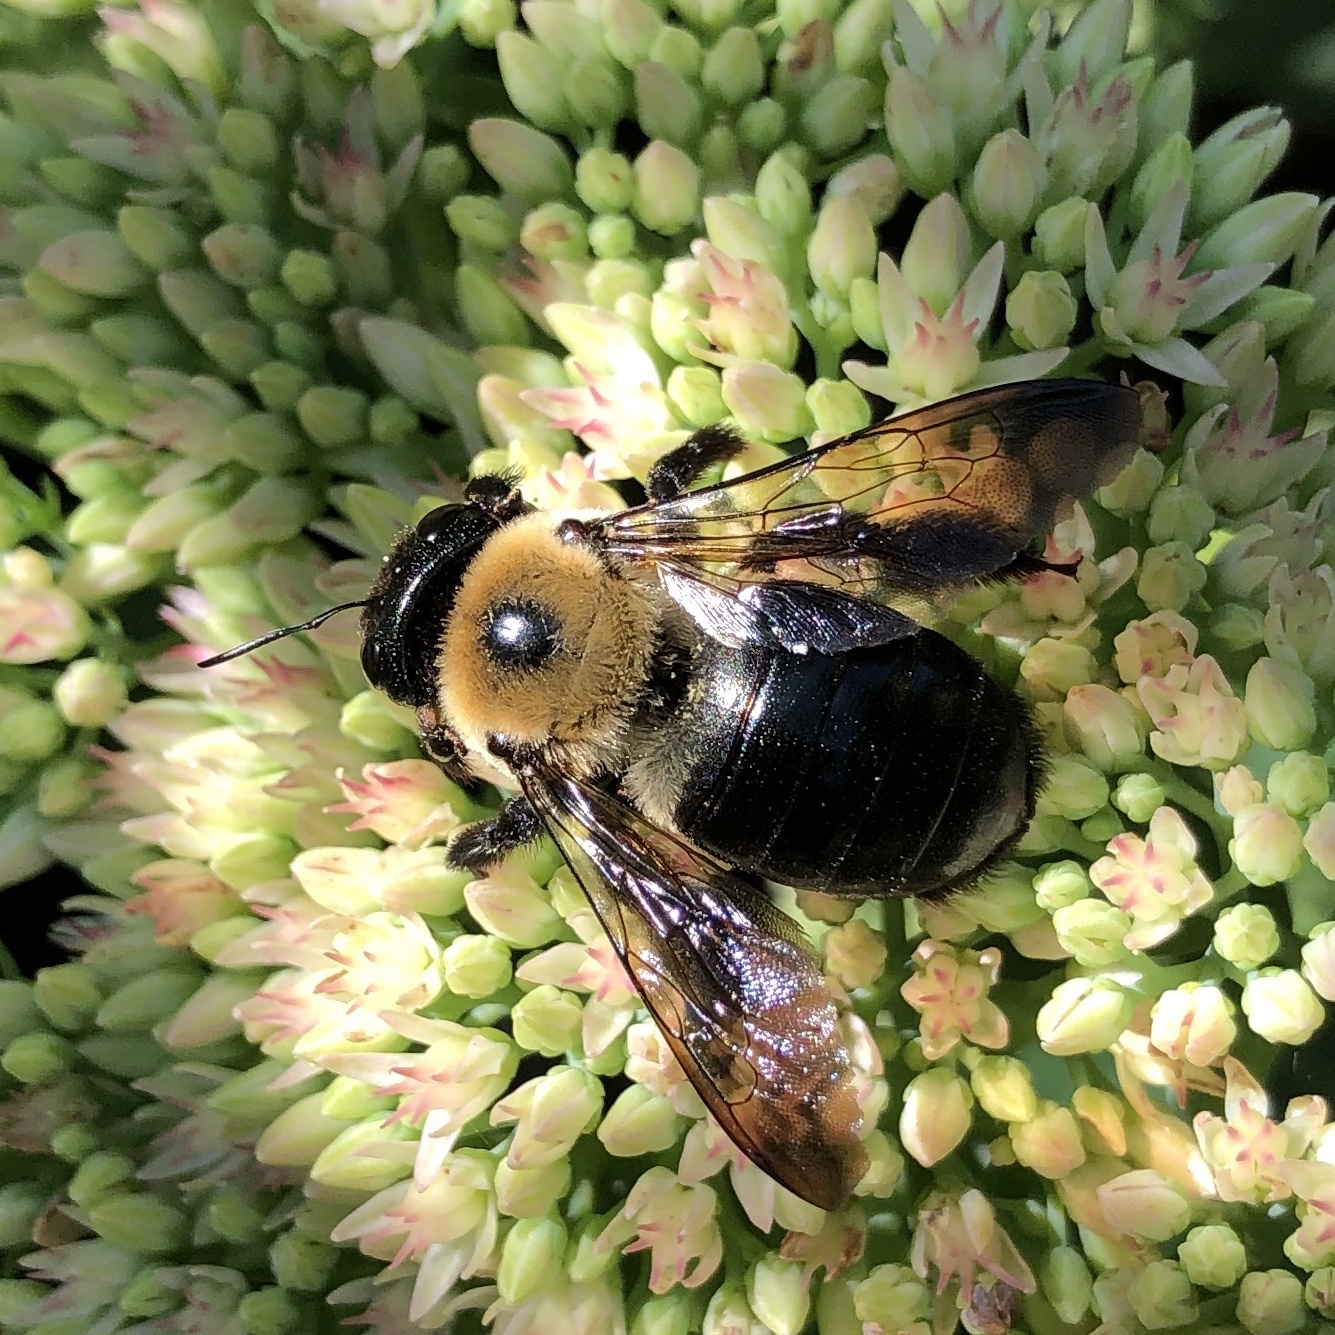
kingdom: Animalia
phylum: Arthropoda
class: Insecta
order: Hymenoptera
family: Apidae
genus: Xylocopa
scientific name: Xylocopa virginica
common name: Carpenter bee
